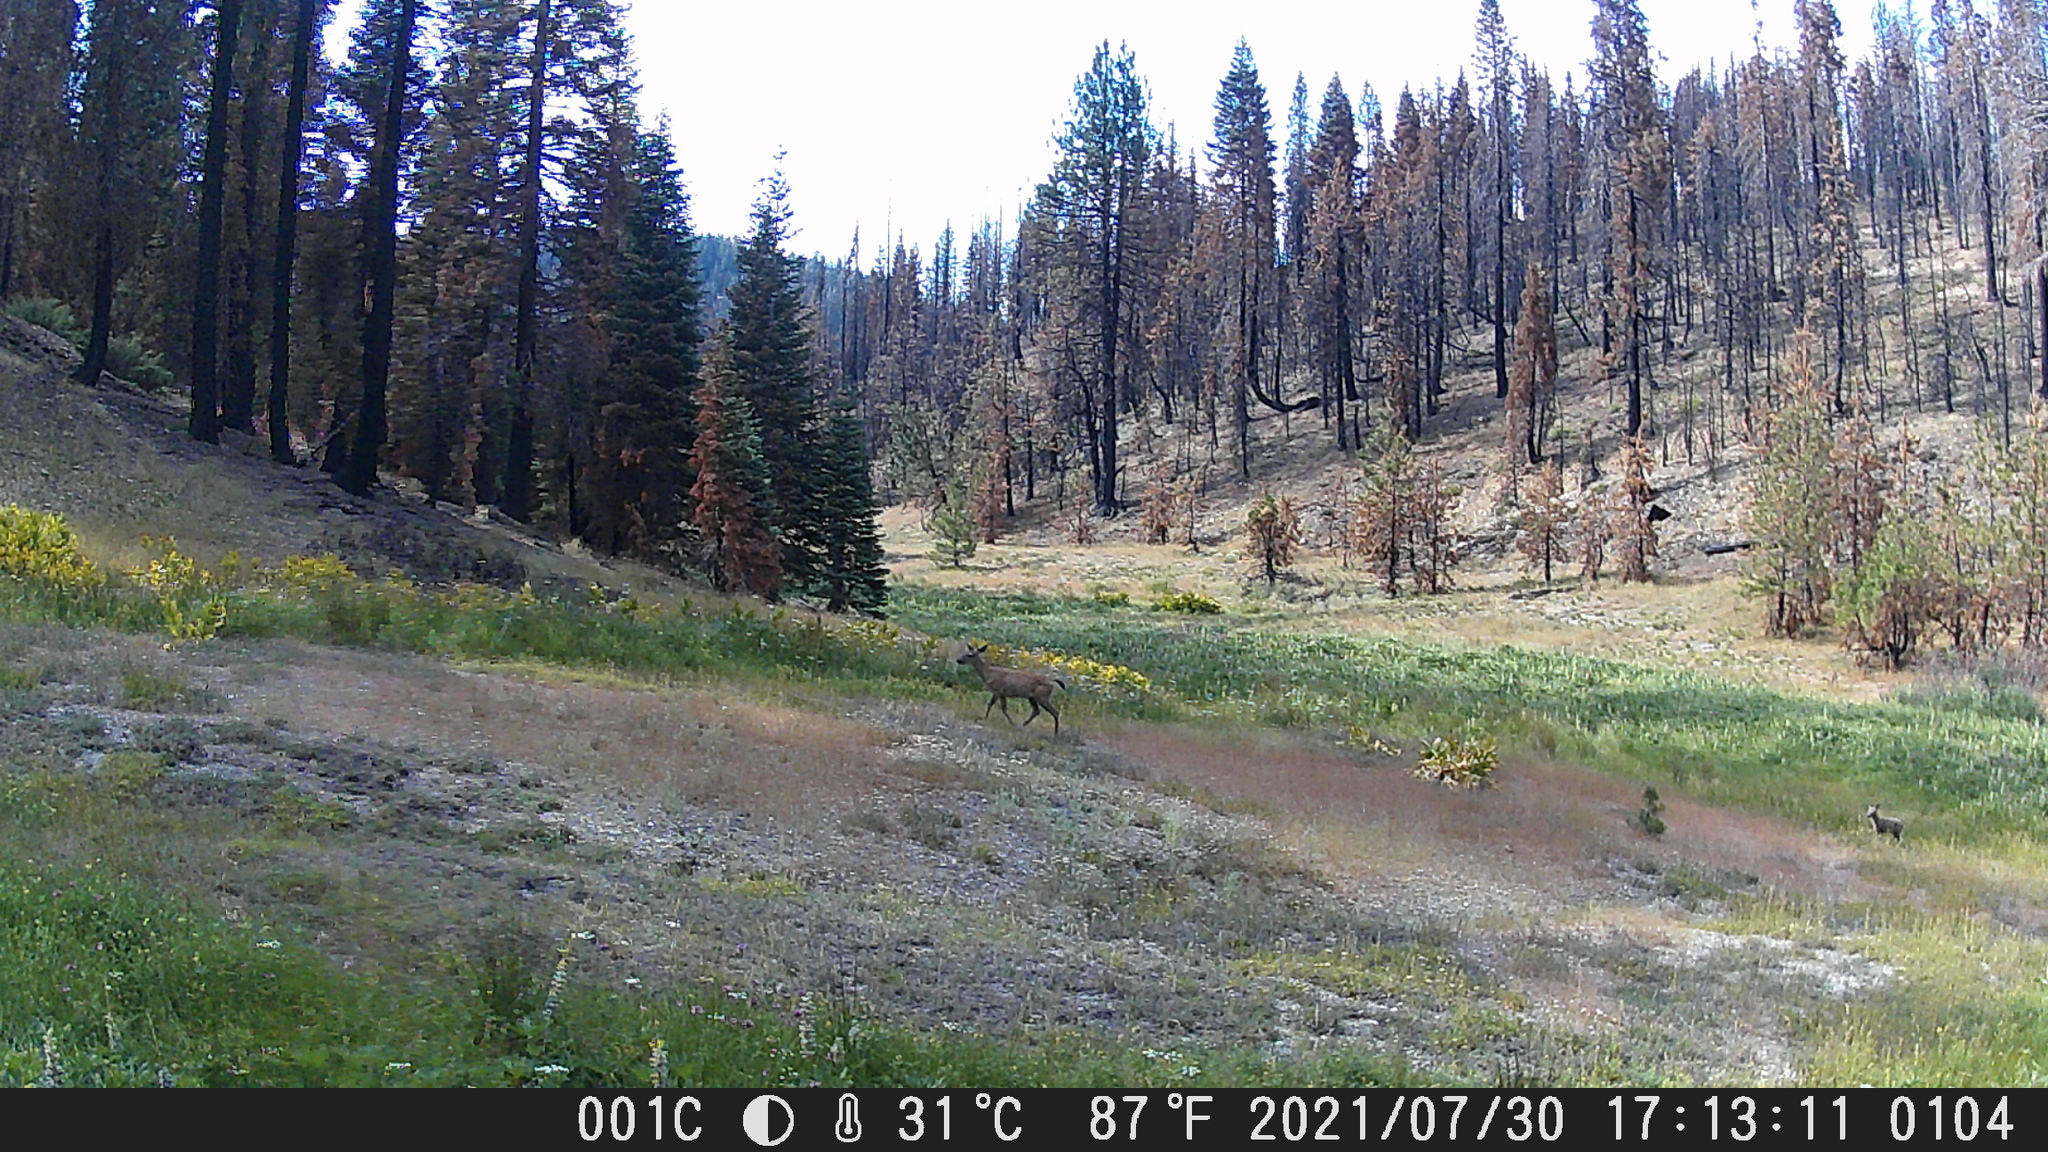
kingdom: Animalia
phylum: Chordata
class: Mammalia
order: Artiodactyla
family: Cervidae
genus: Odocoileus
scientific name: Odocoileus hemionus
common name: Mule deer
